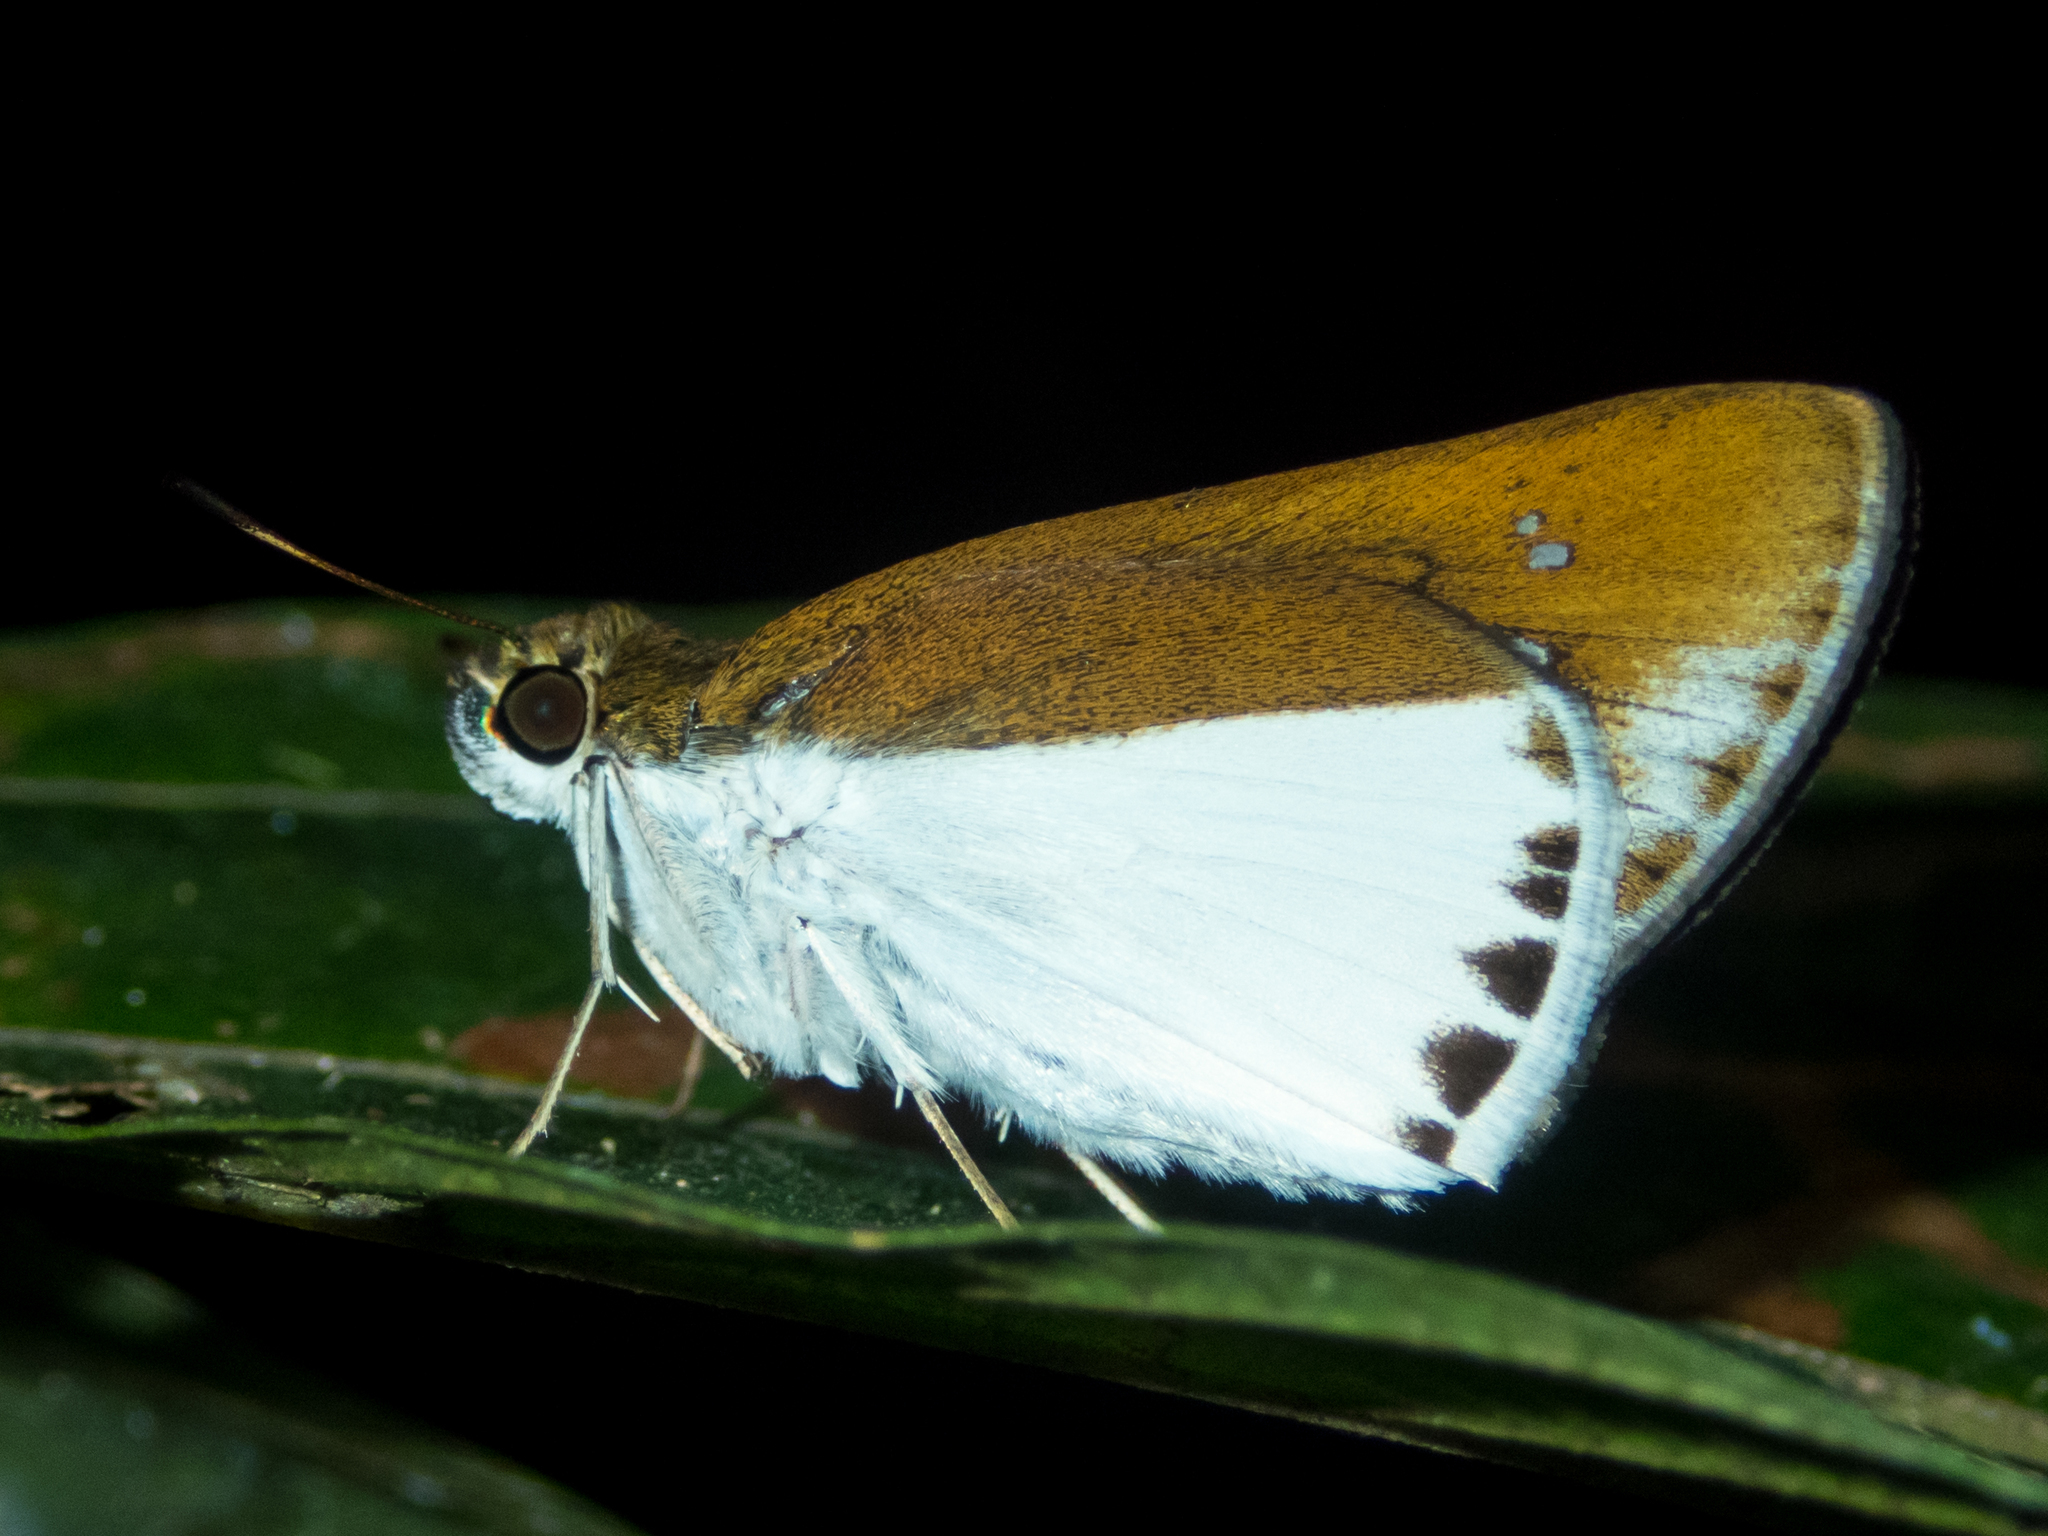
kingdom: Animalia
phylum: Arthropoda
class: Insecta
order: Lepidoptera
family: Hesperiidae
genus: Iton
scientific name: Iton semamora
